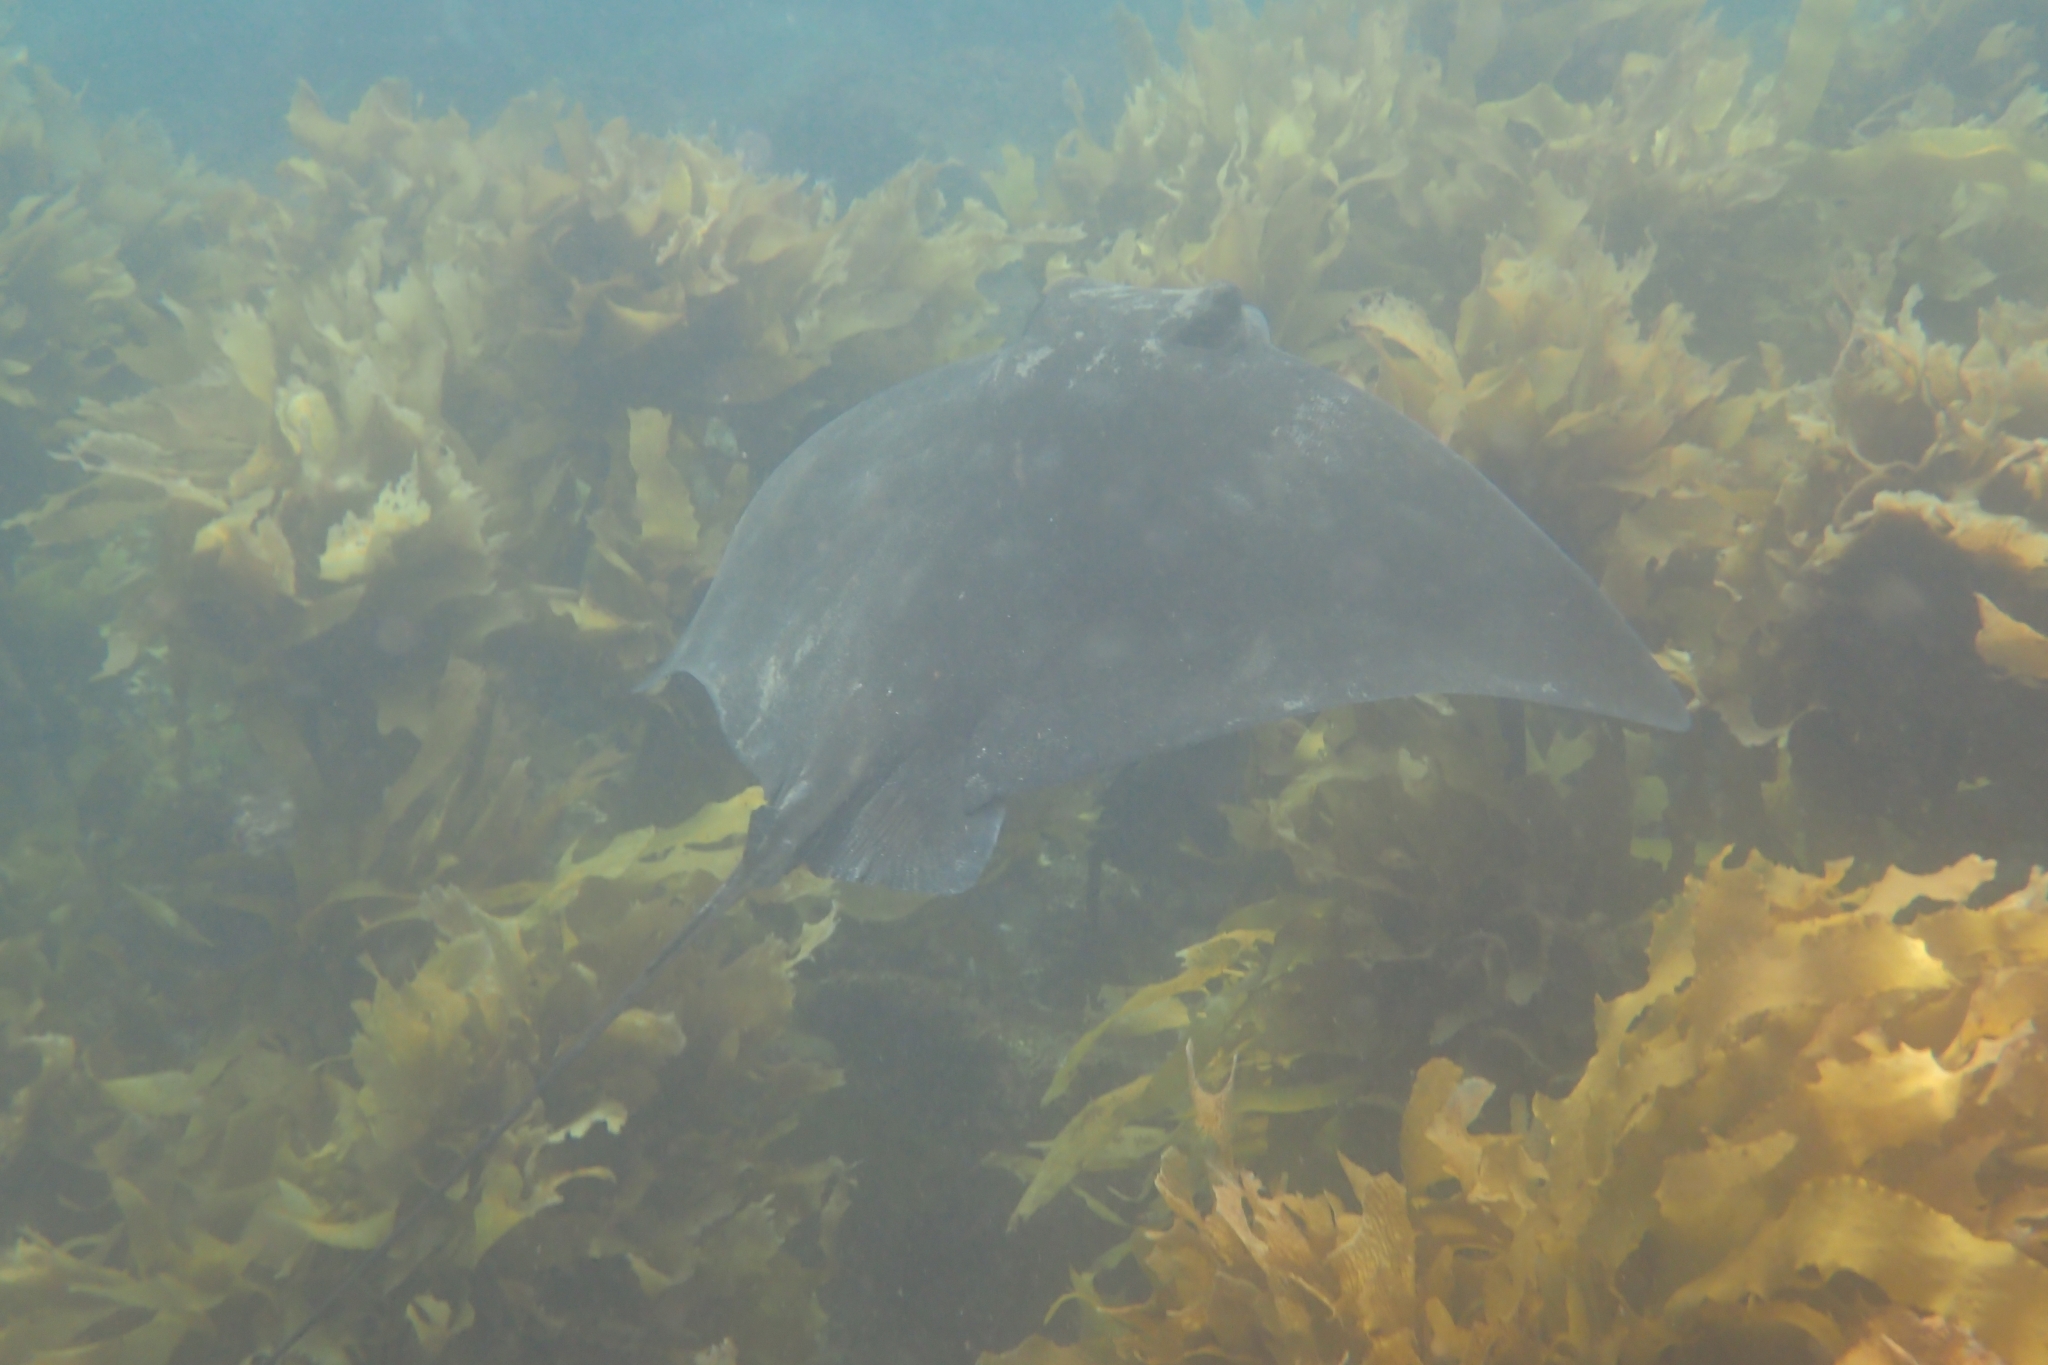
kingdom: Animalia
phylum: Chordata
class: Elasmobranchii
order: Myliobatiformes
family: Myliobatidae
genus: Myliobatis
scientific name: Myliobatis tenuicaudatus
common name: Eagle ray
